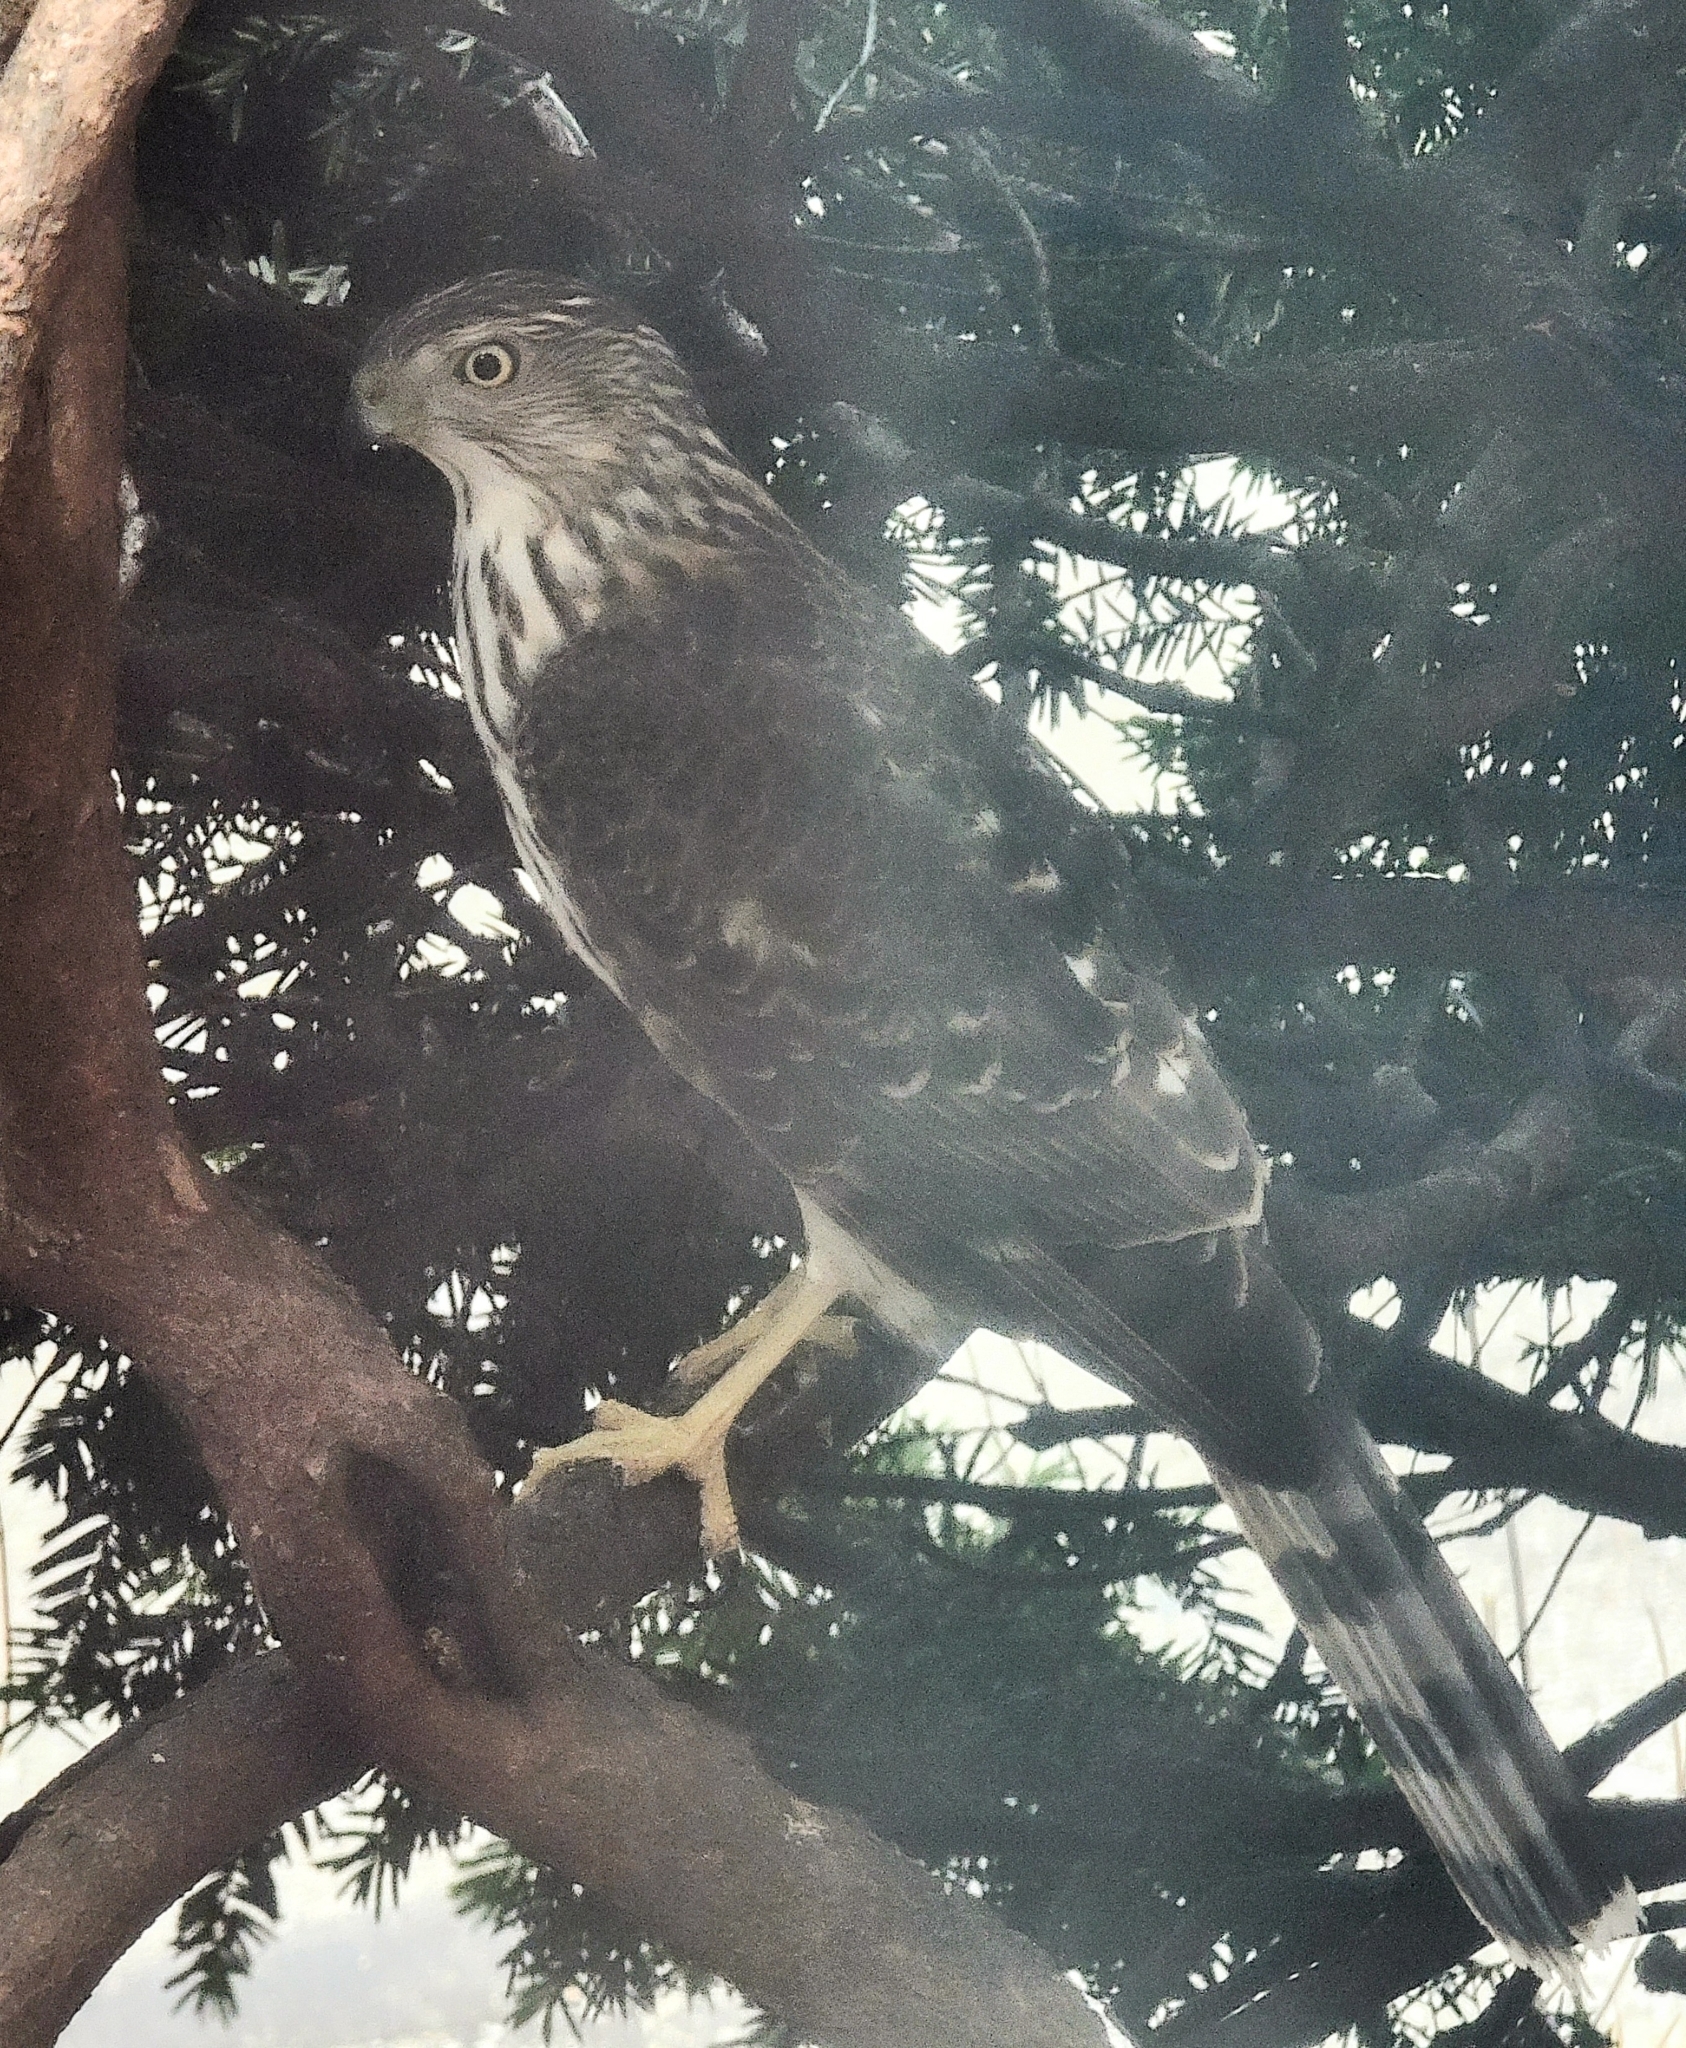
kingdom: Animalia
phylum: Chordata
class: Aves
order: Accipitriformes
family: Accipitridae
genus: Accipiter
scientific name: Accipiter cooperii
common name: Cooper's hawk
